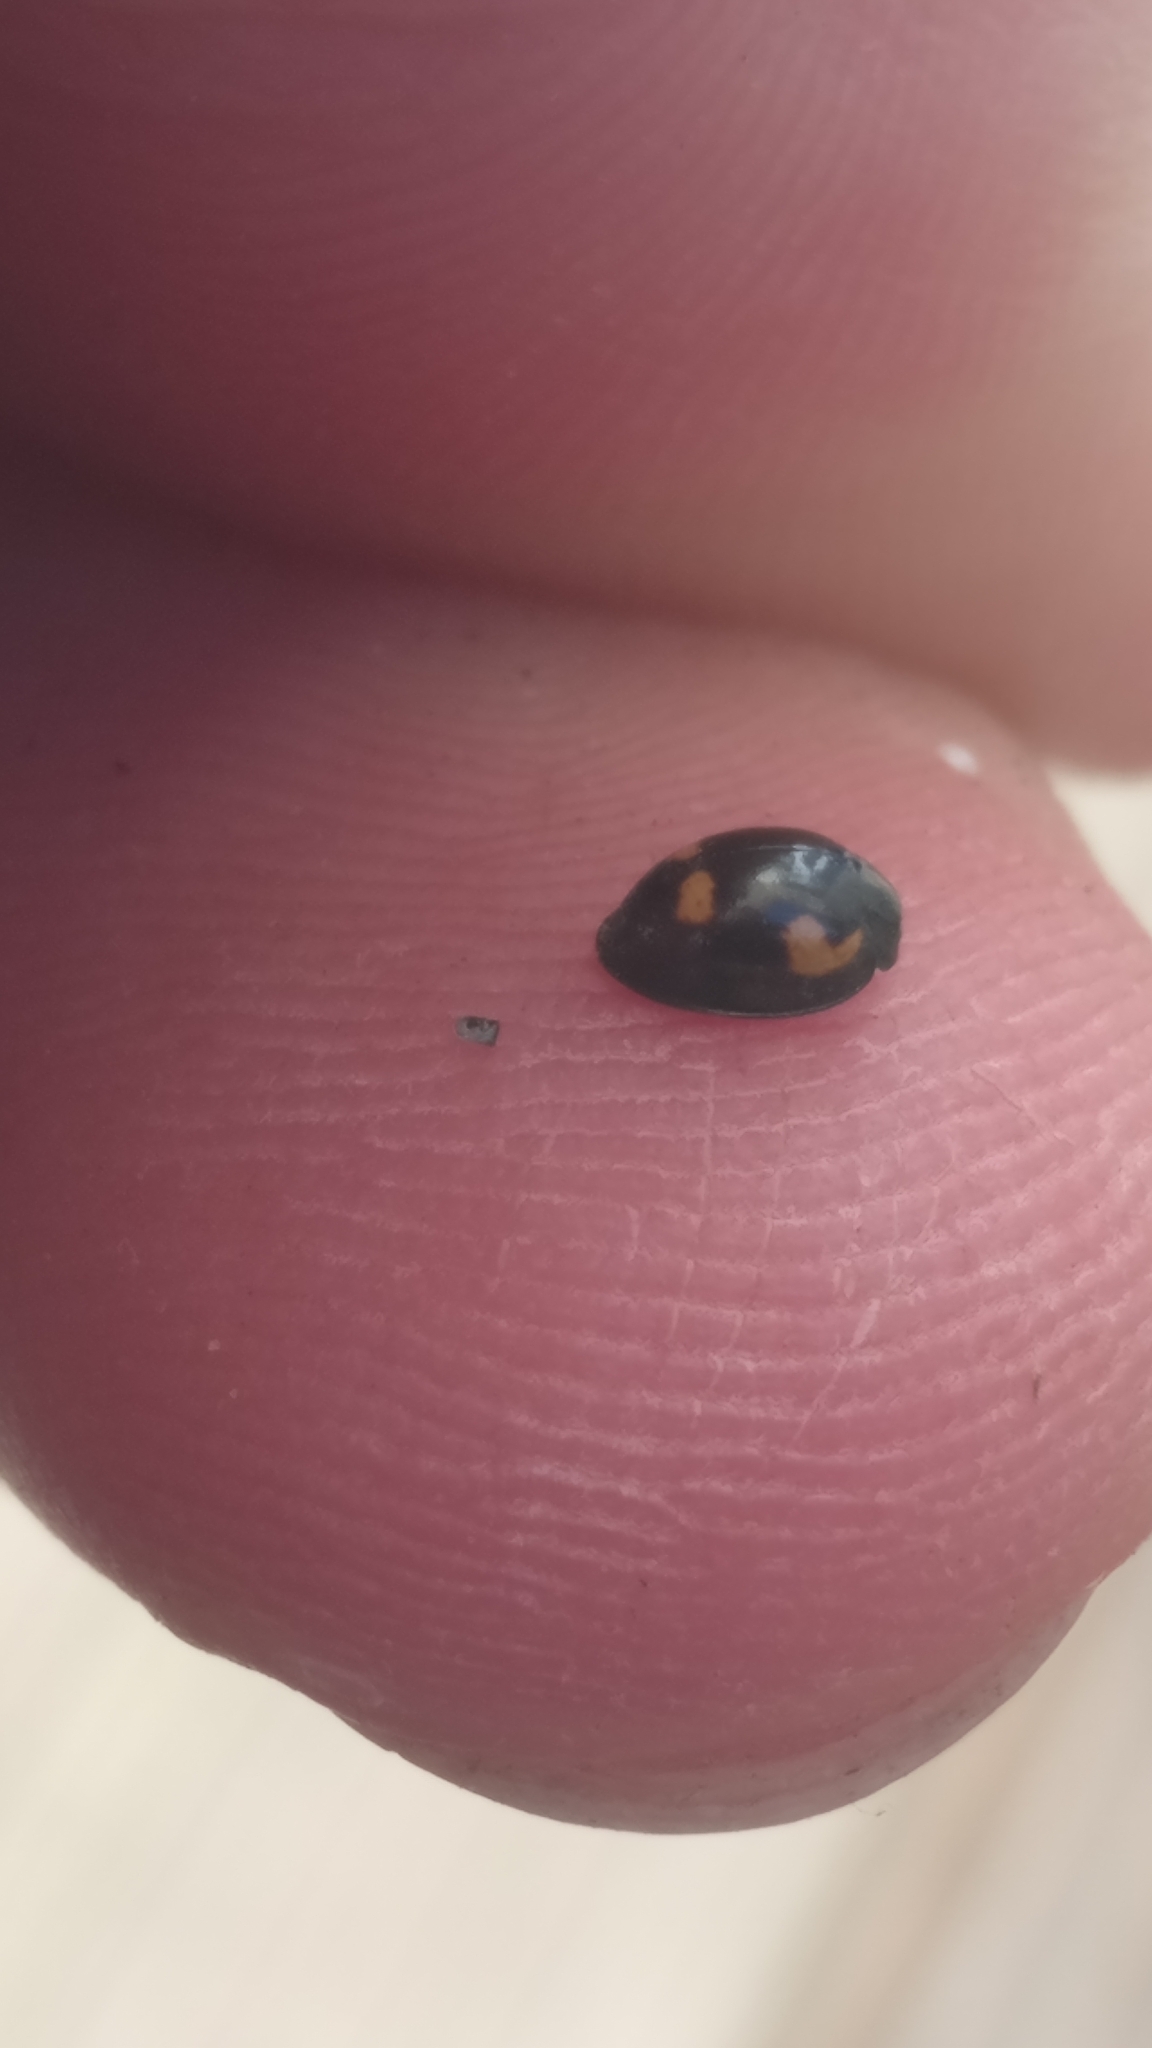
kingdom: Animalia
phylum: Arthropoda
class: Insecta
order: Coleoptera
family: Coccinellidae
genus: Brumus
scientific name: Brumus quadripustulatus
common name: Ladybird beetle
